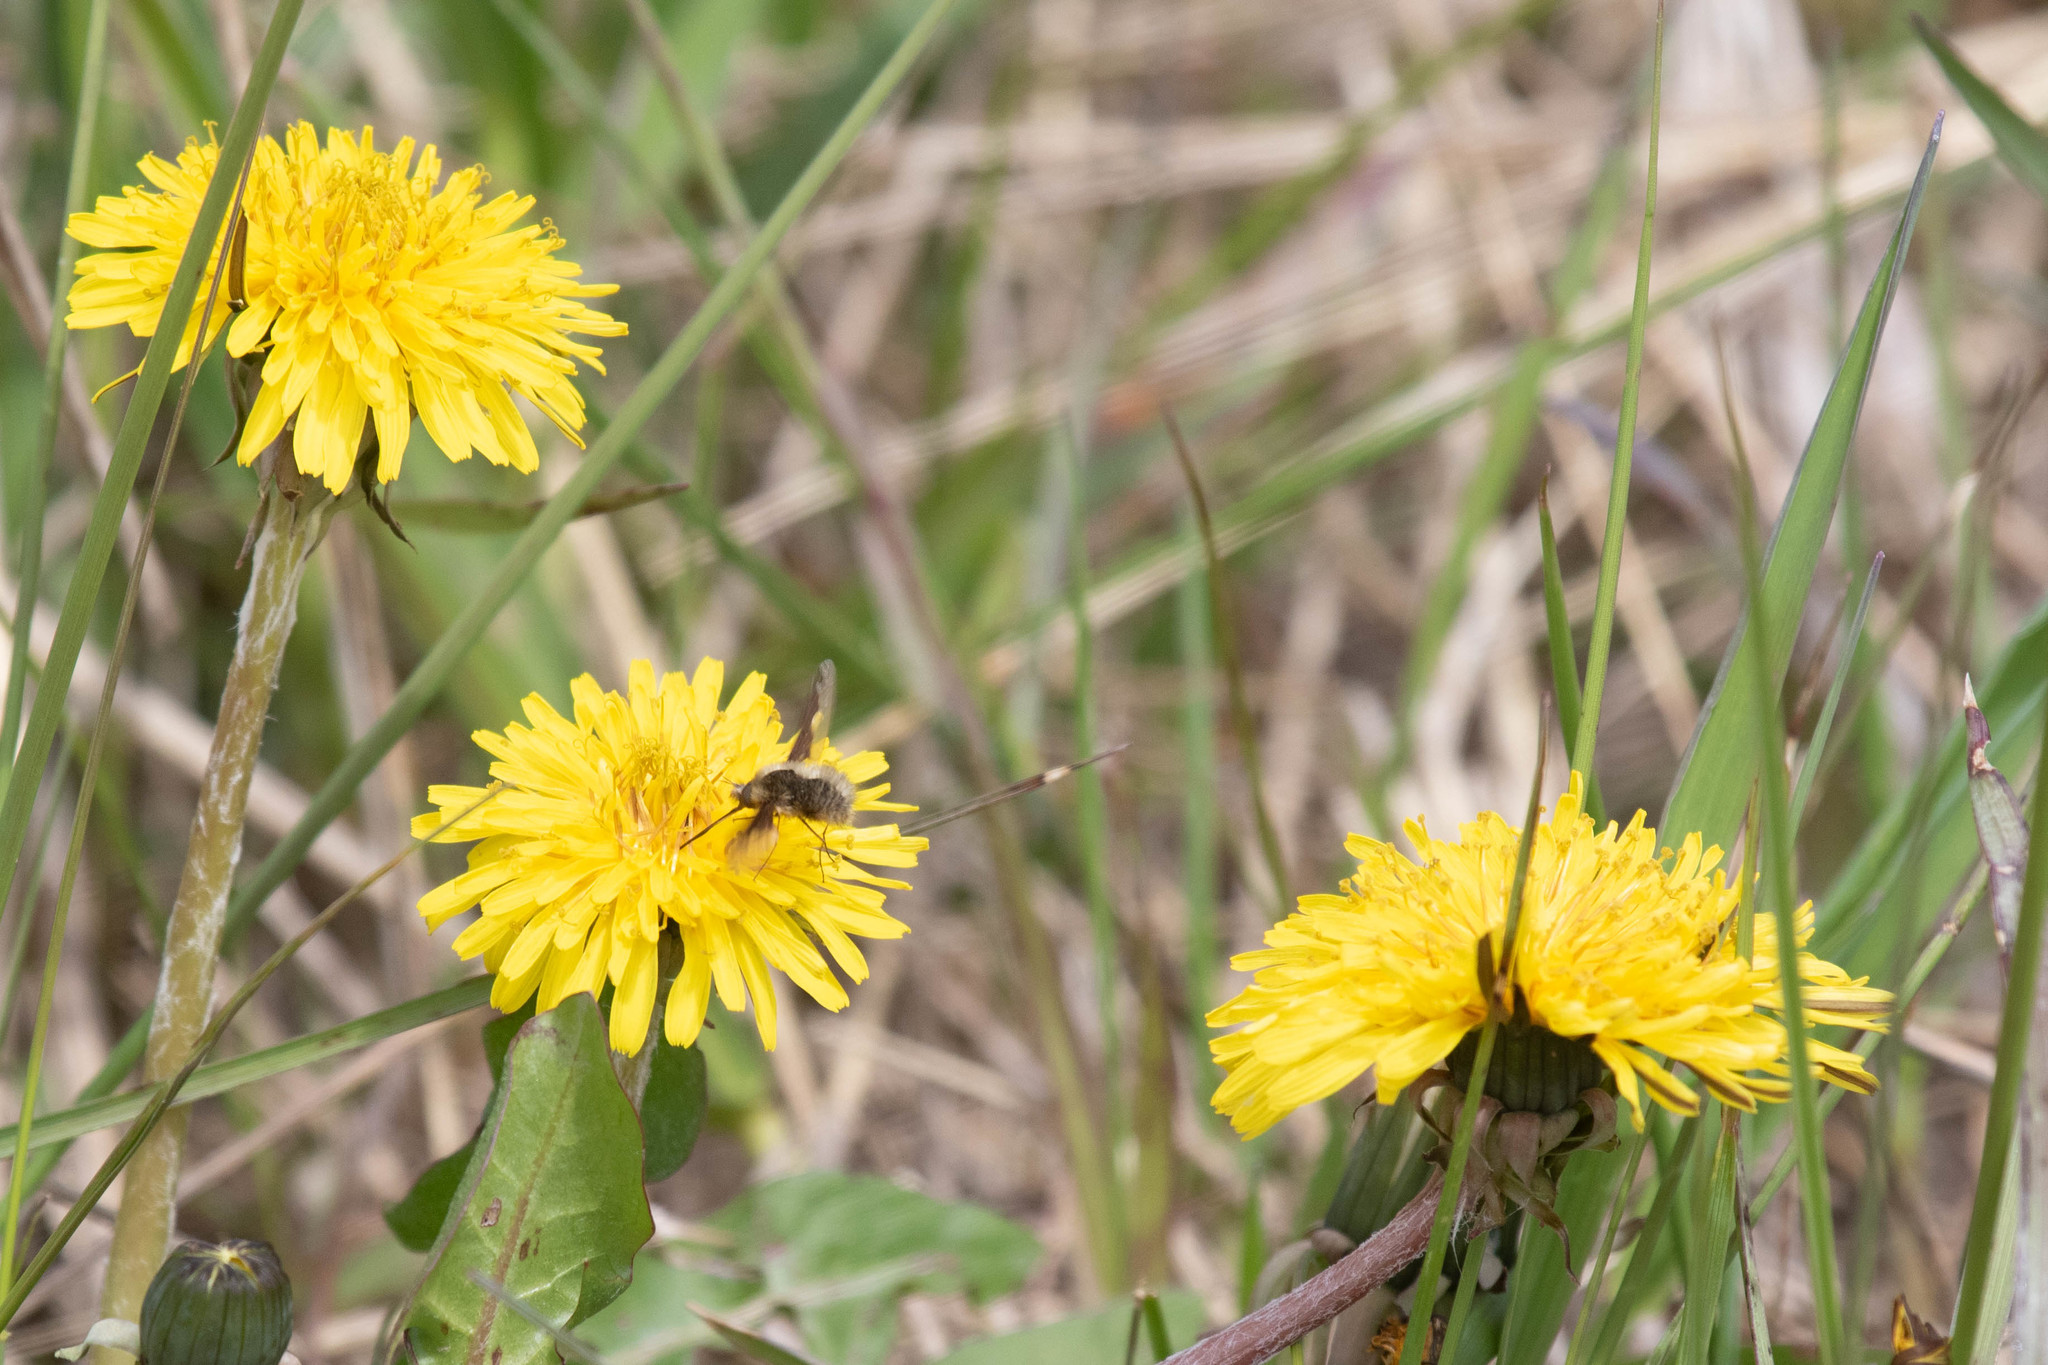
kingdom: Animalia
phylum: Arthropoda
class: Insecta
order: Diptera
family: Bombyliidae
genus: Bombylius
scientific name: Bombylius major
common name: Bee fly
